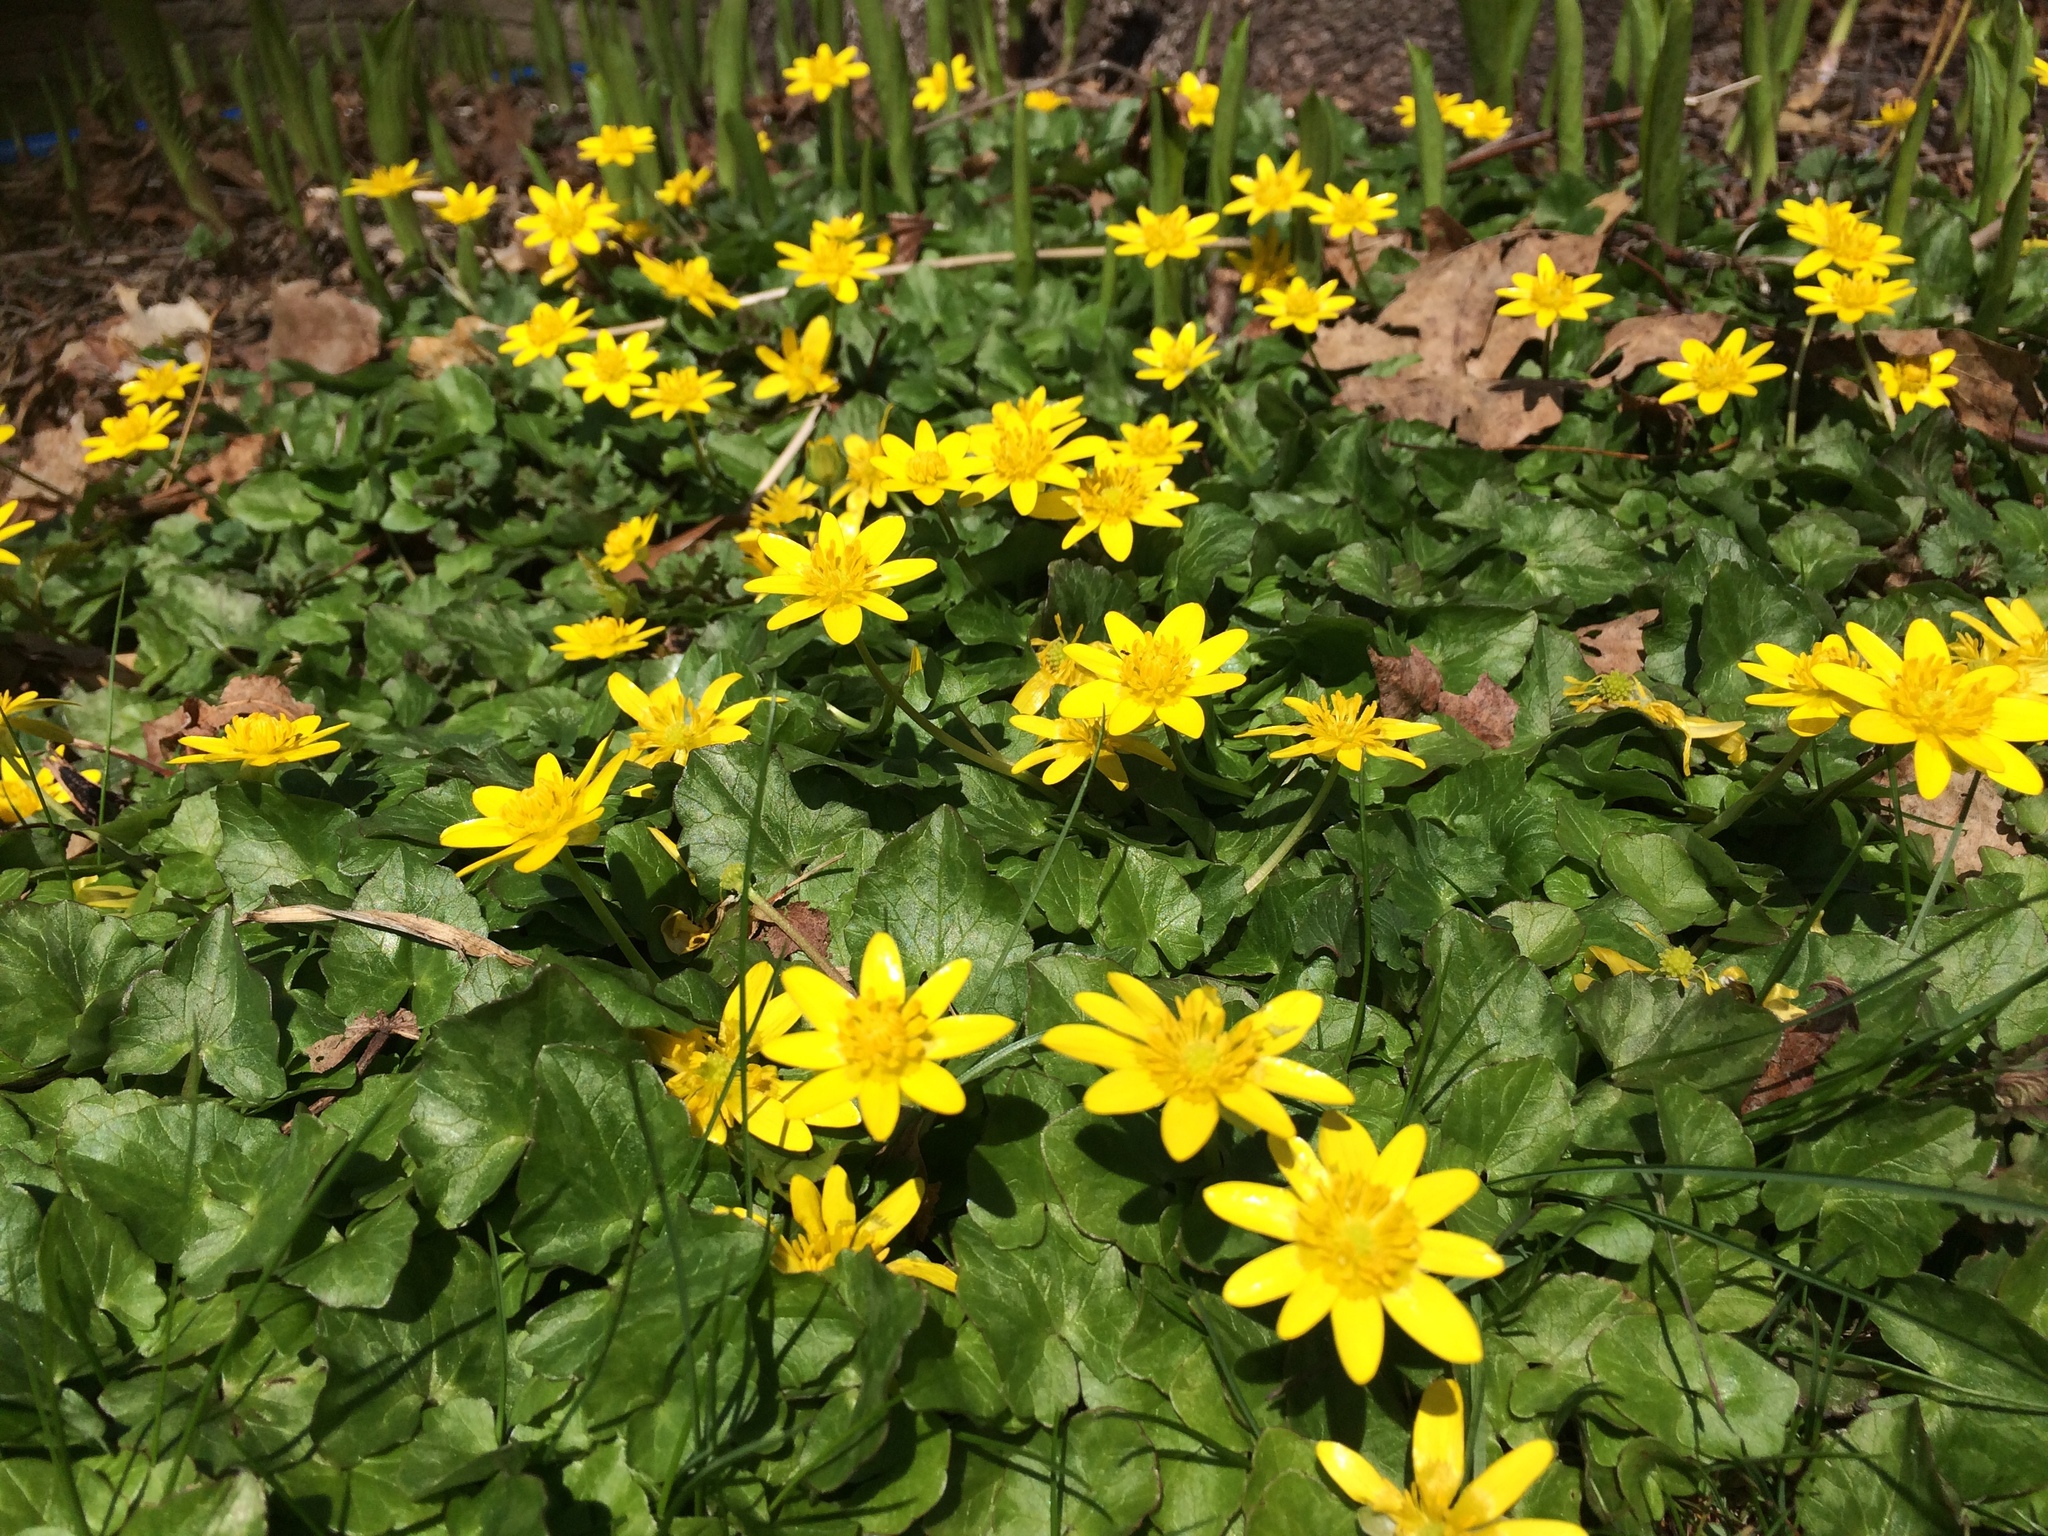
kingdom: Plantae
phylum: Tracheophyta
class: Magnoliopsida
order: Ranunculales
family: Ranunculaceae
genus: Ficaria
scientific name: Ficaria verna
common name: Lesser celandine
